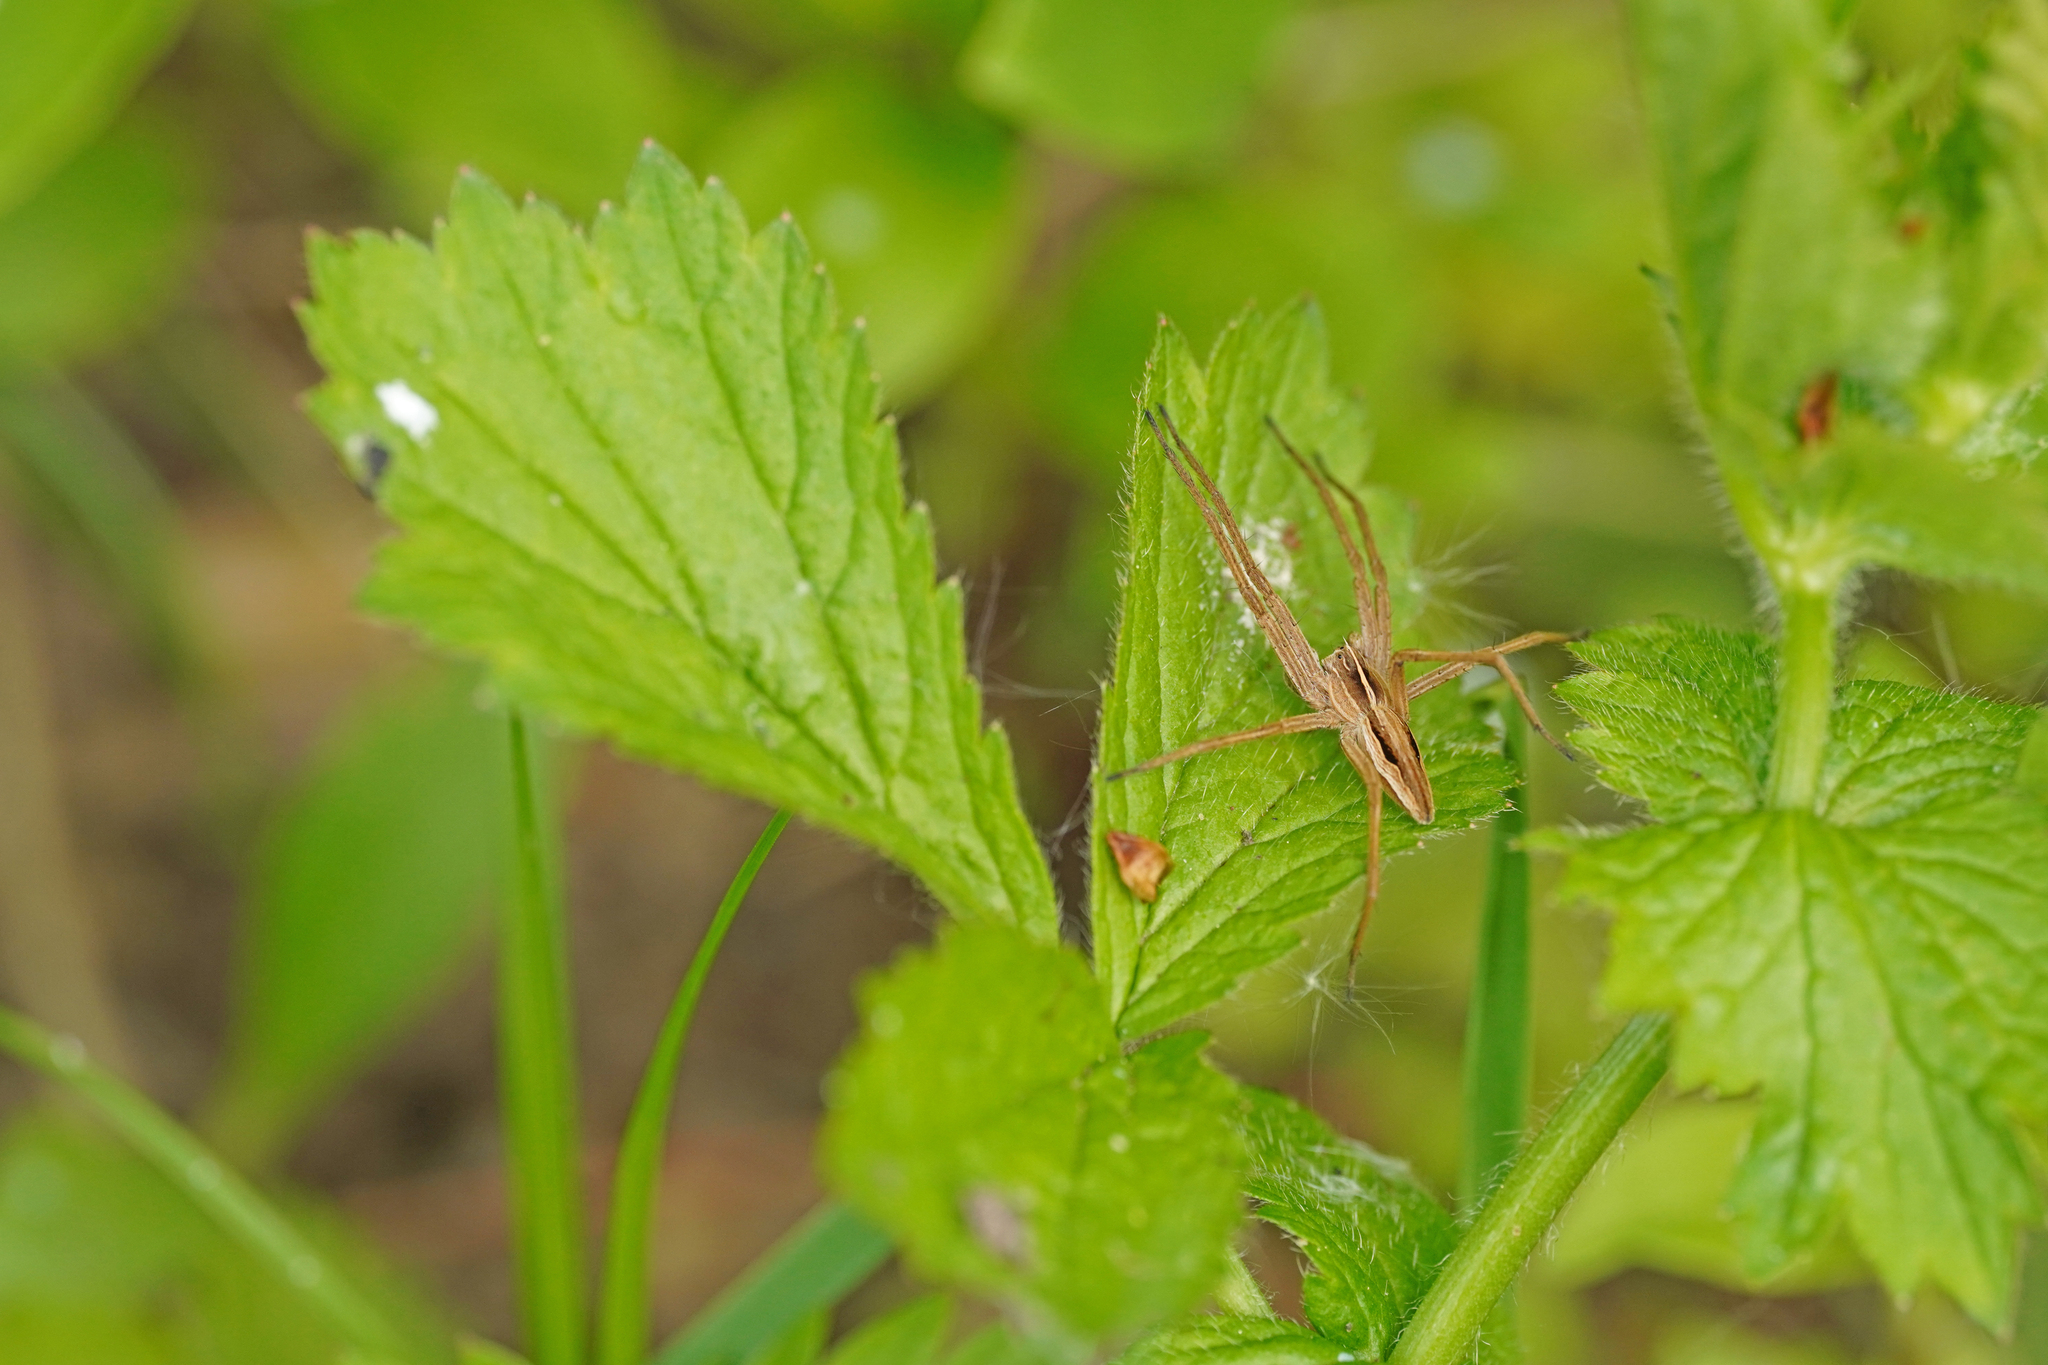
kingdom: Animalia
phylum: Arthropoda
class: Arachnida
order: Araneae
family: Pisauridae
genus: Pisaura
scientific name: Pisaura mirabilis
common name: Tent spider
